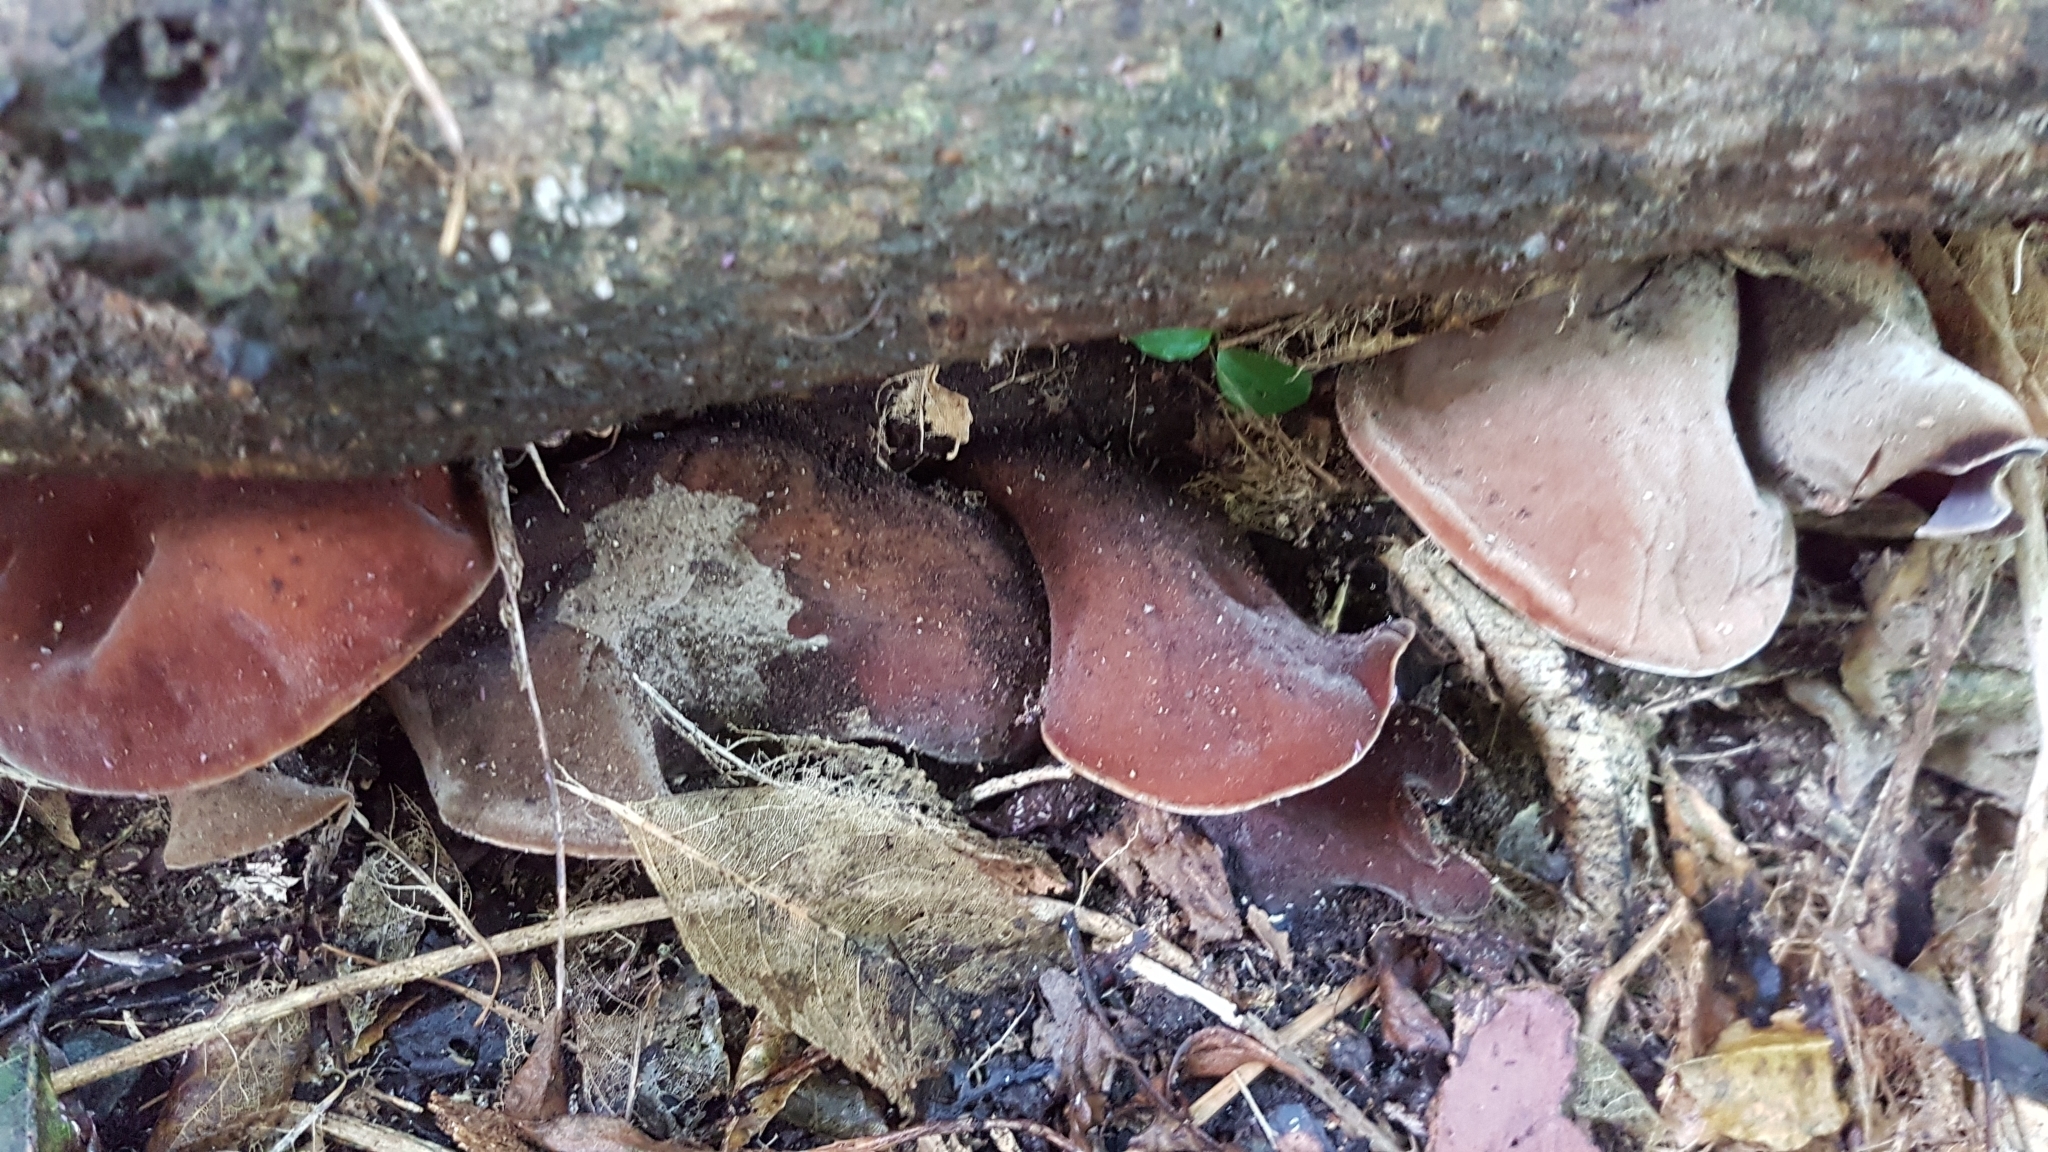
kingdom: Fungi
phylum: Basidiomycota
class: Agaricomycetes
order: Auriculariales
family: Auriculariaceae
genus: Auricularia
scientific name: Auricularia cornea
